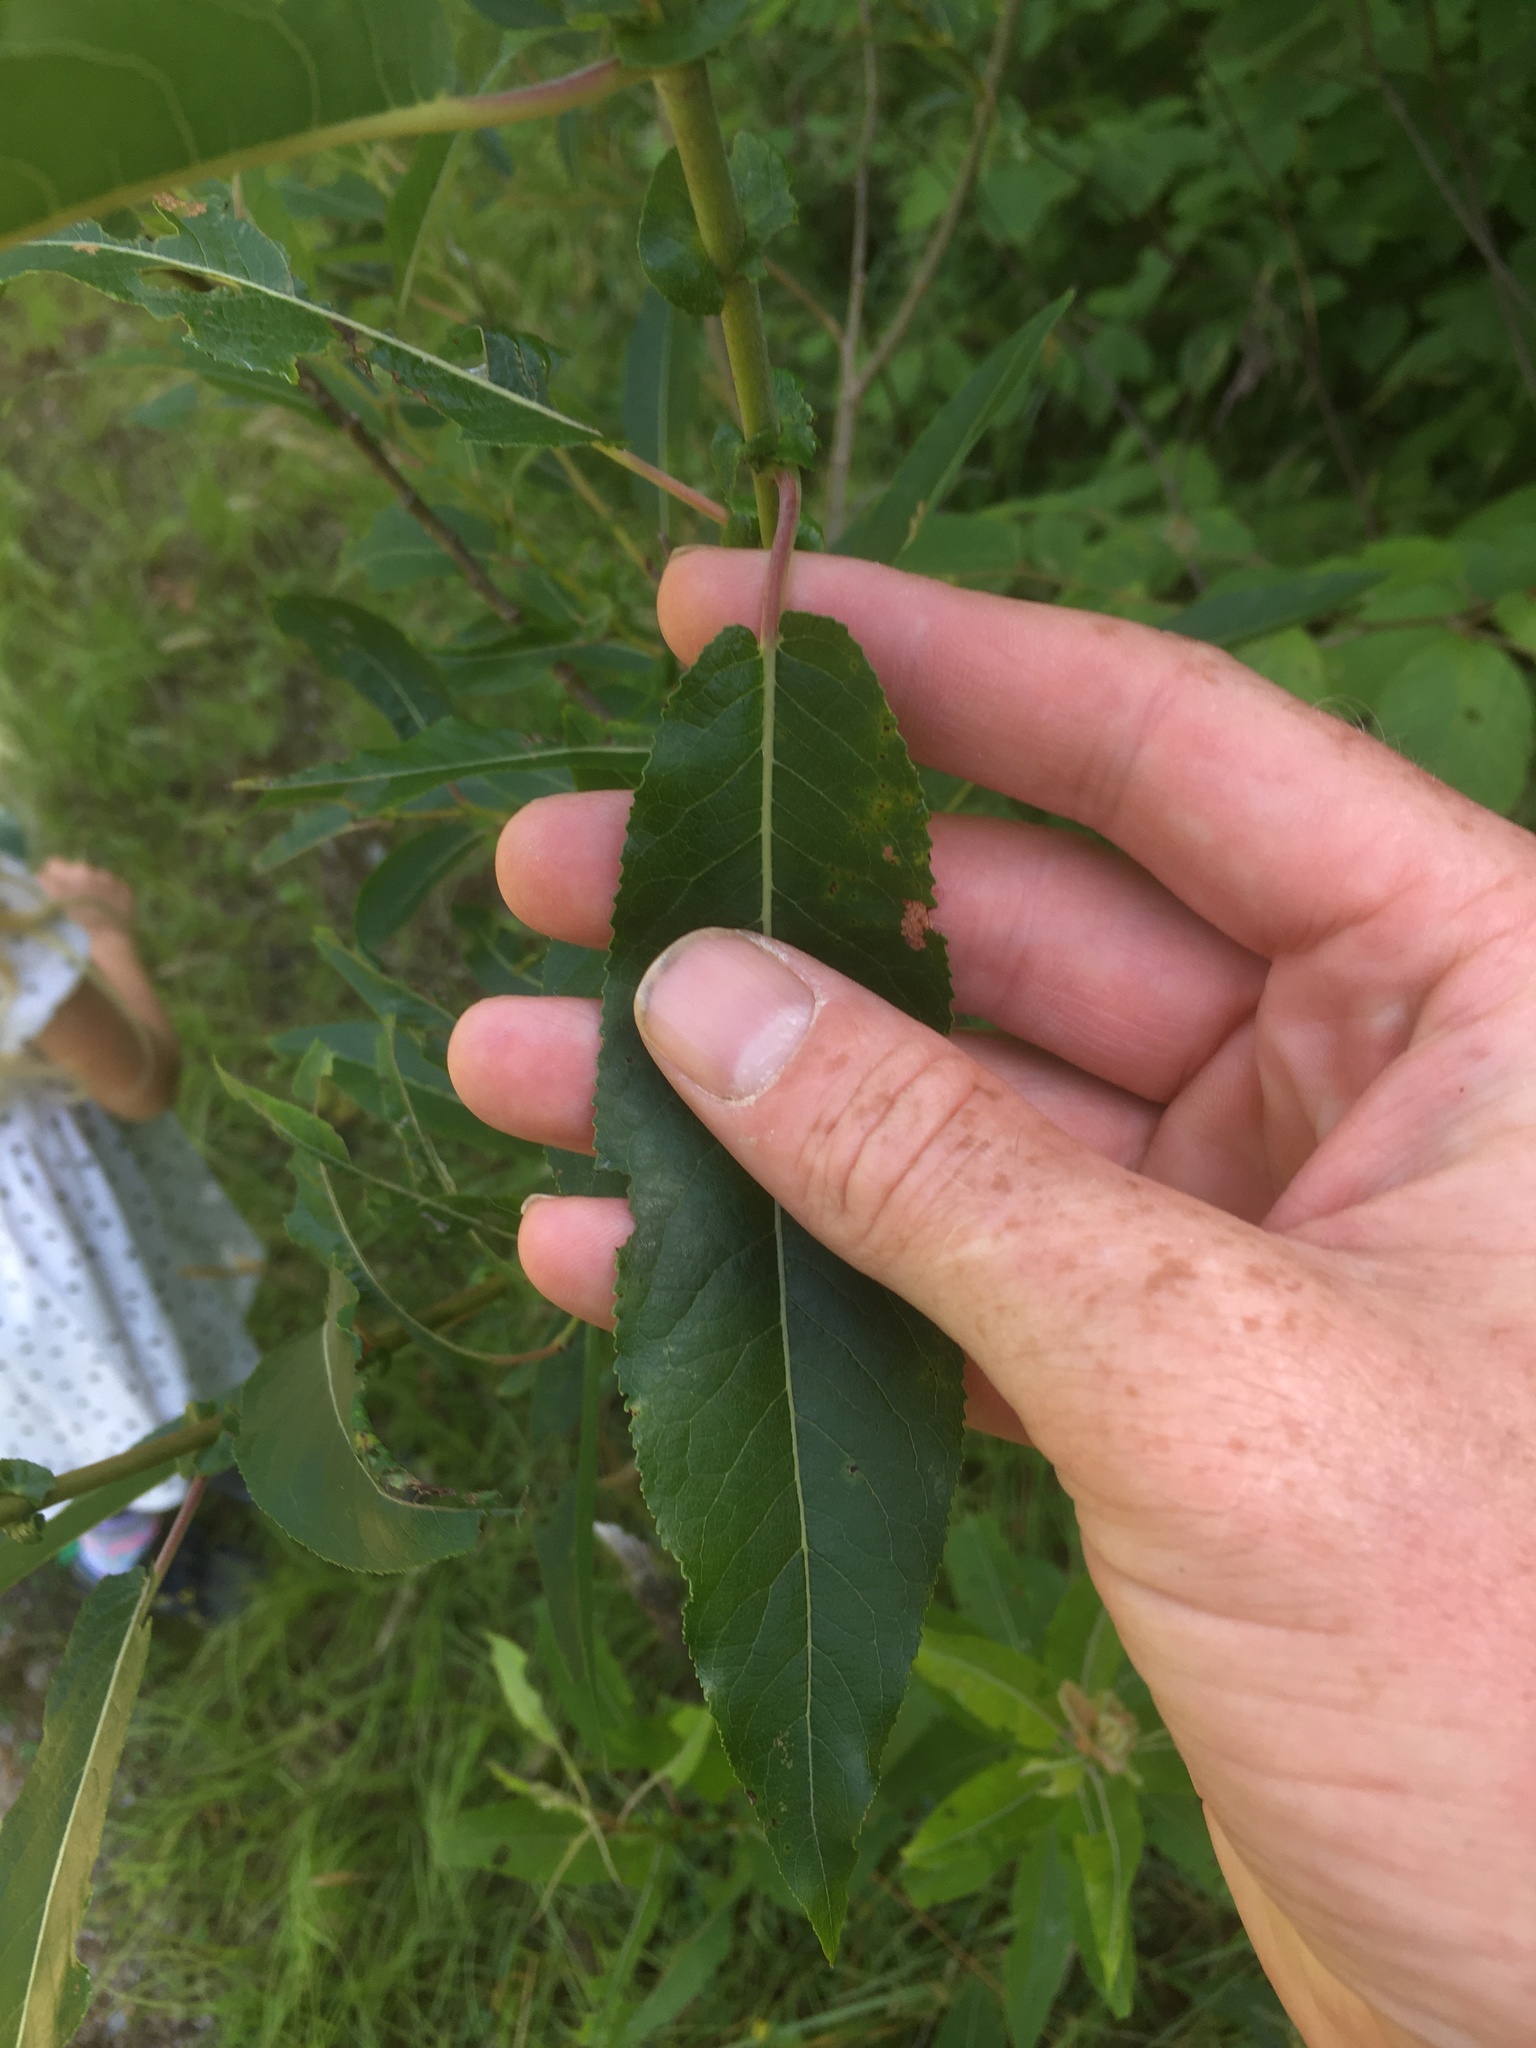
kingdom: Plantae
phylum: Tracheophyta
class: Magnoliopsida
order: Malpighiales
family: Salicaceae
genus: Salix
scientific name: Salix eriocephala
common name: Heart-leaved willow
